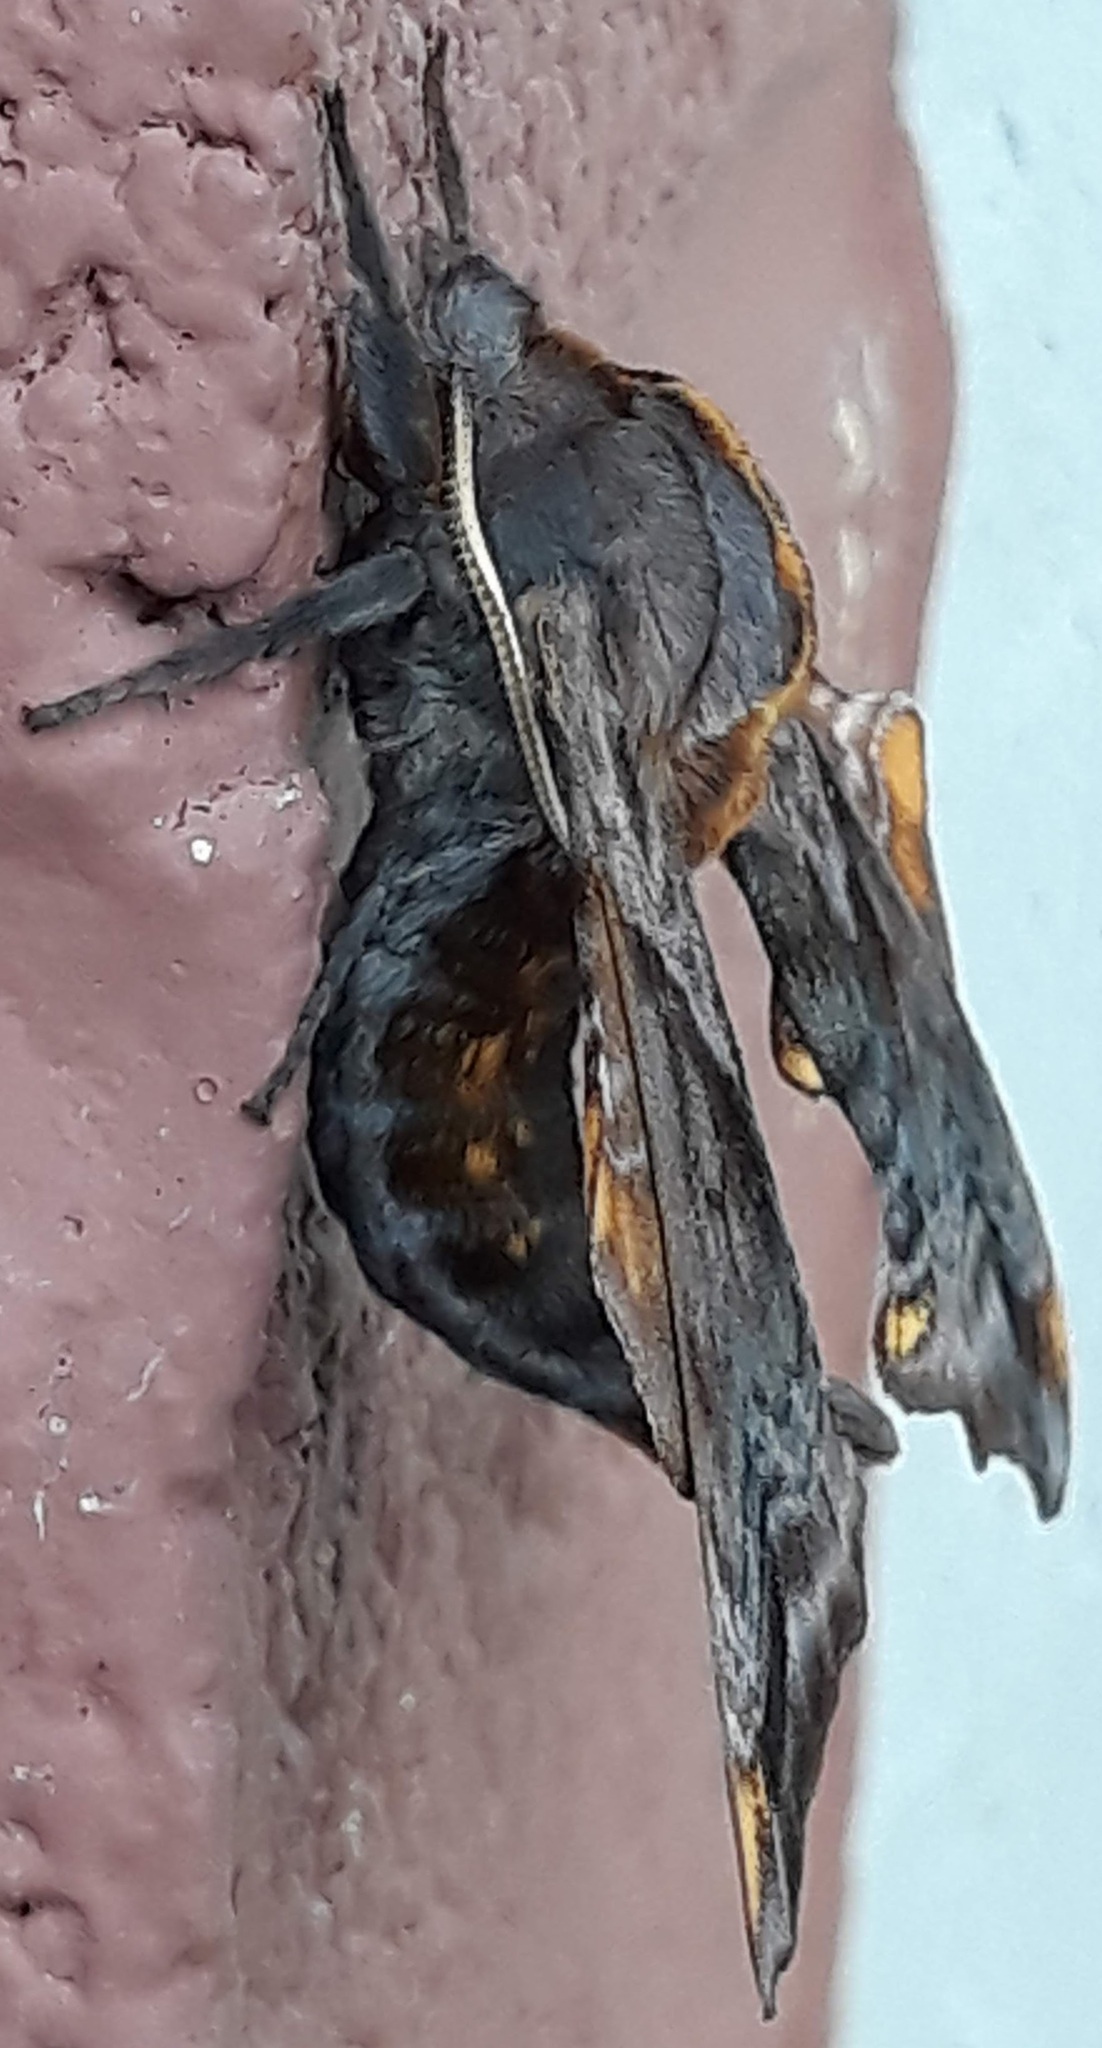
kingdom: Animalia
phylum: Arthropoda
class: Insecta
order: Lepidoptera
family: Sphingidae
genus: Paonias
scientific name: Paonias myops
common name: Small-eyed sphinx
